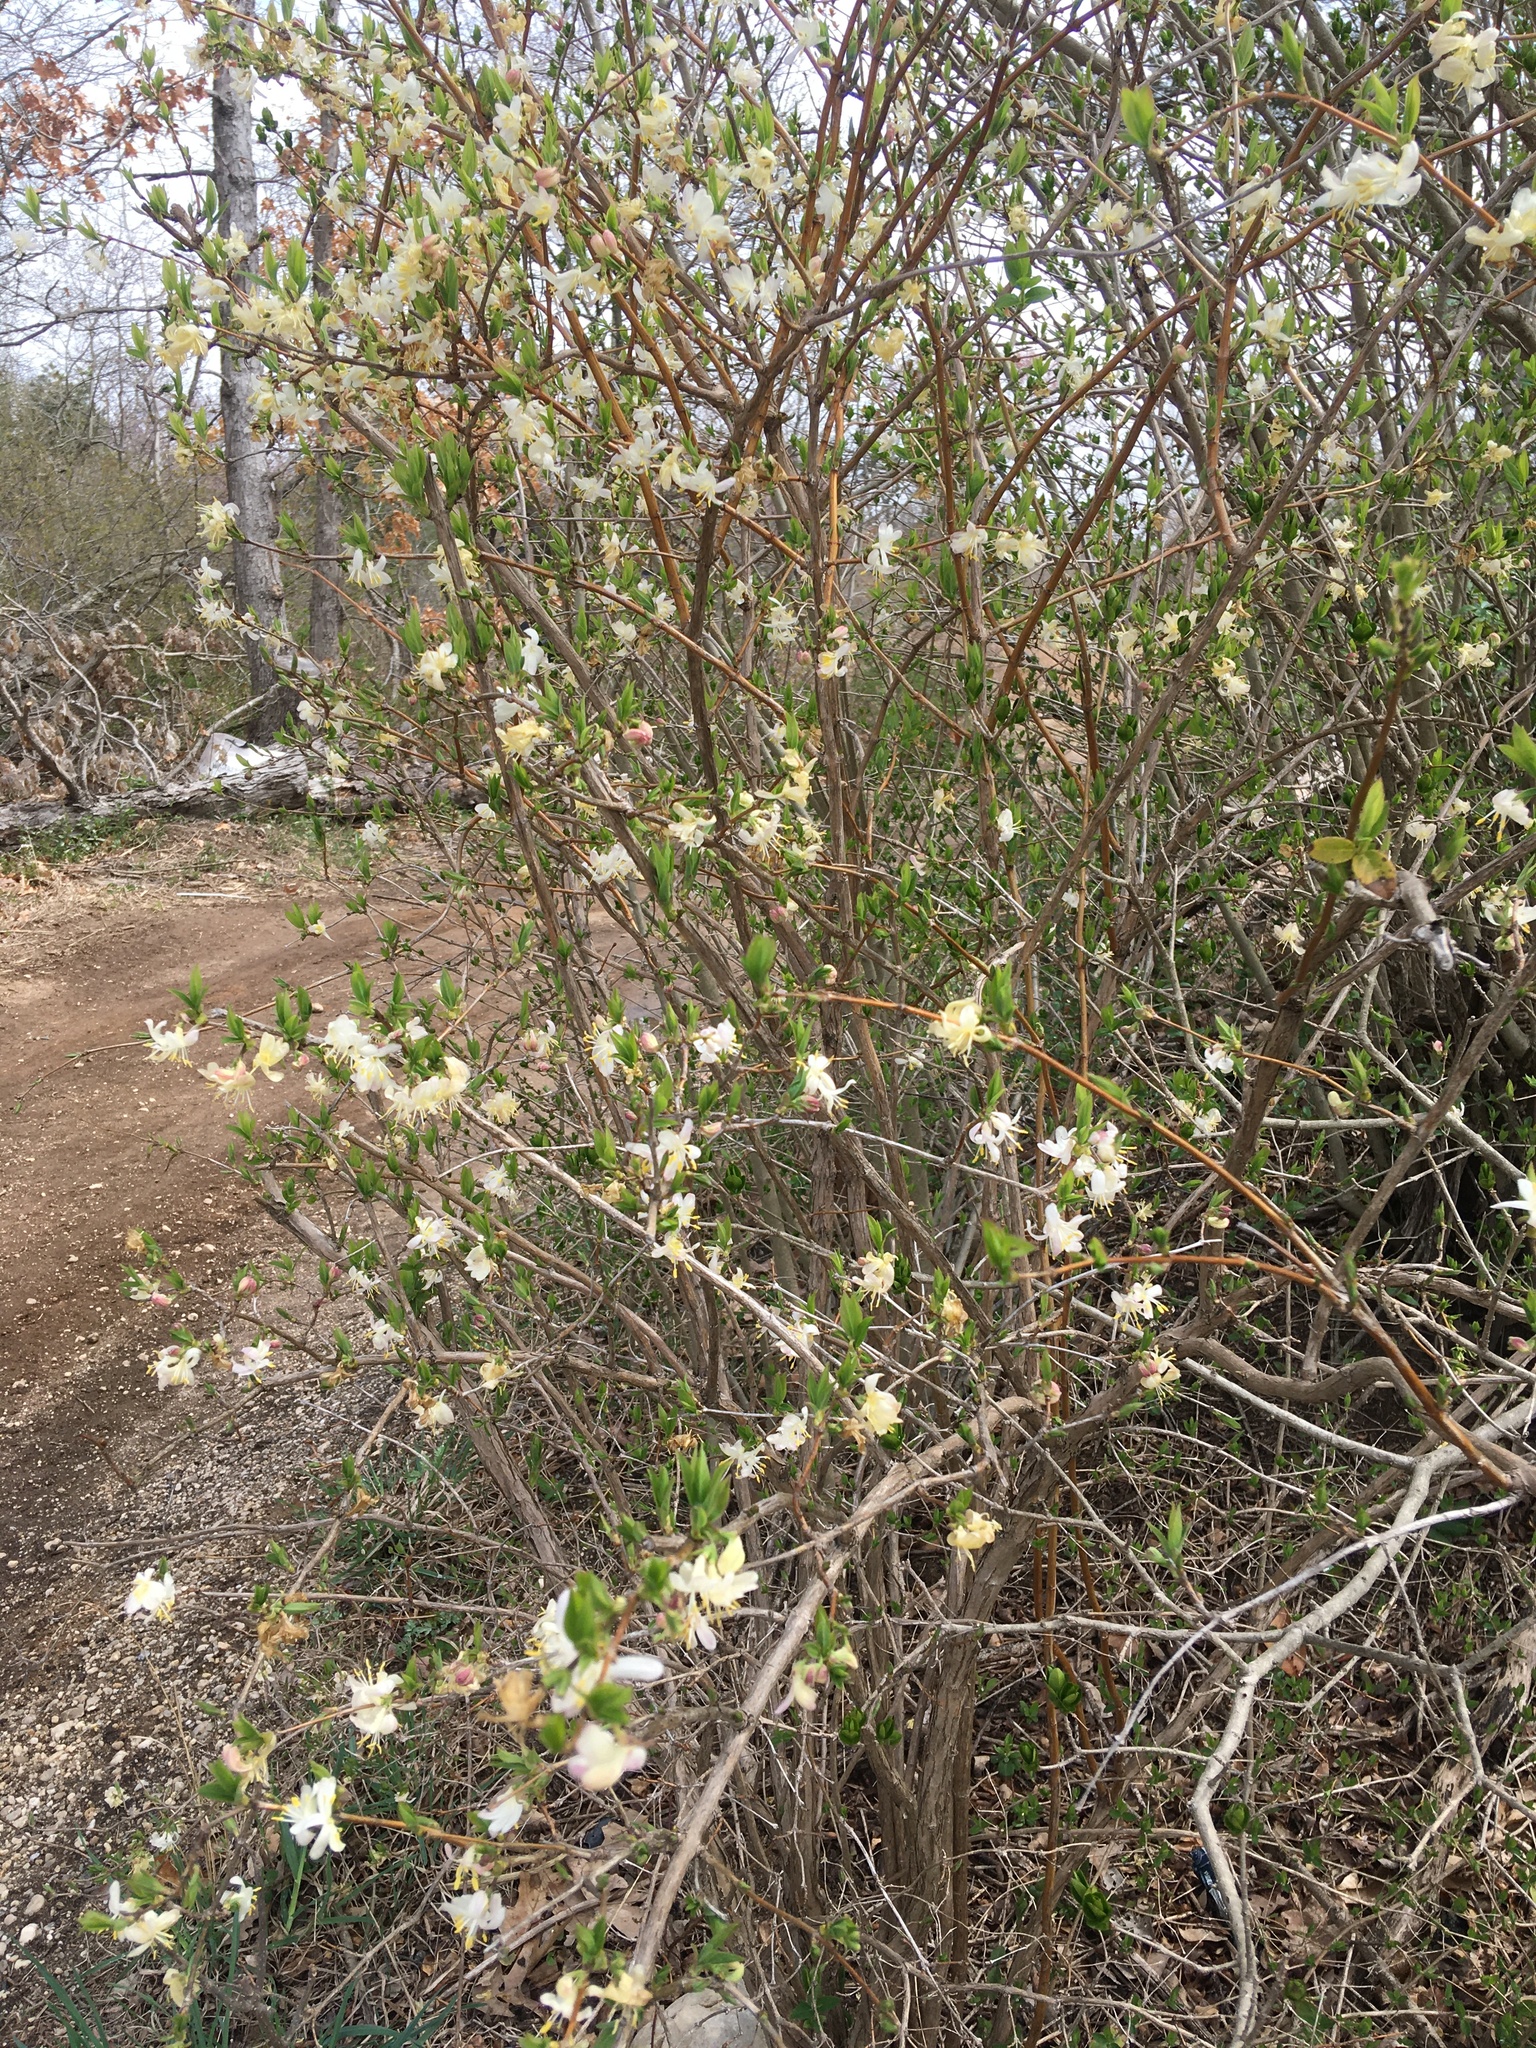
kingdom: Plantae
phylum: Tracheophyta
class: Magnoliopsida
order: Dipsacales
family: Caprifoliaceae
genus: Lonicera
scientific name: Lonicera fragrantissima
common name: Fragrant honeysuckle
